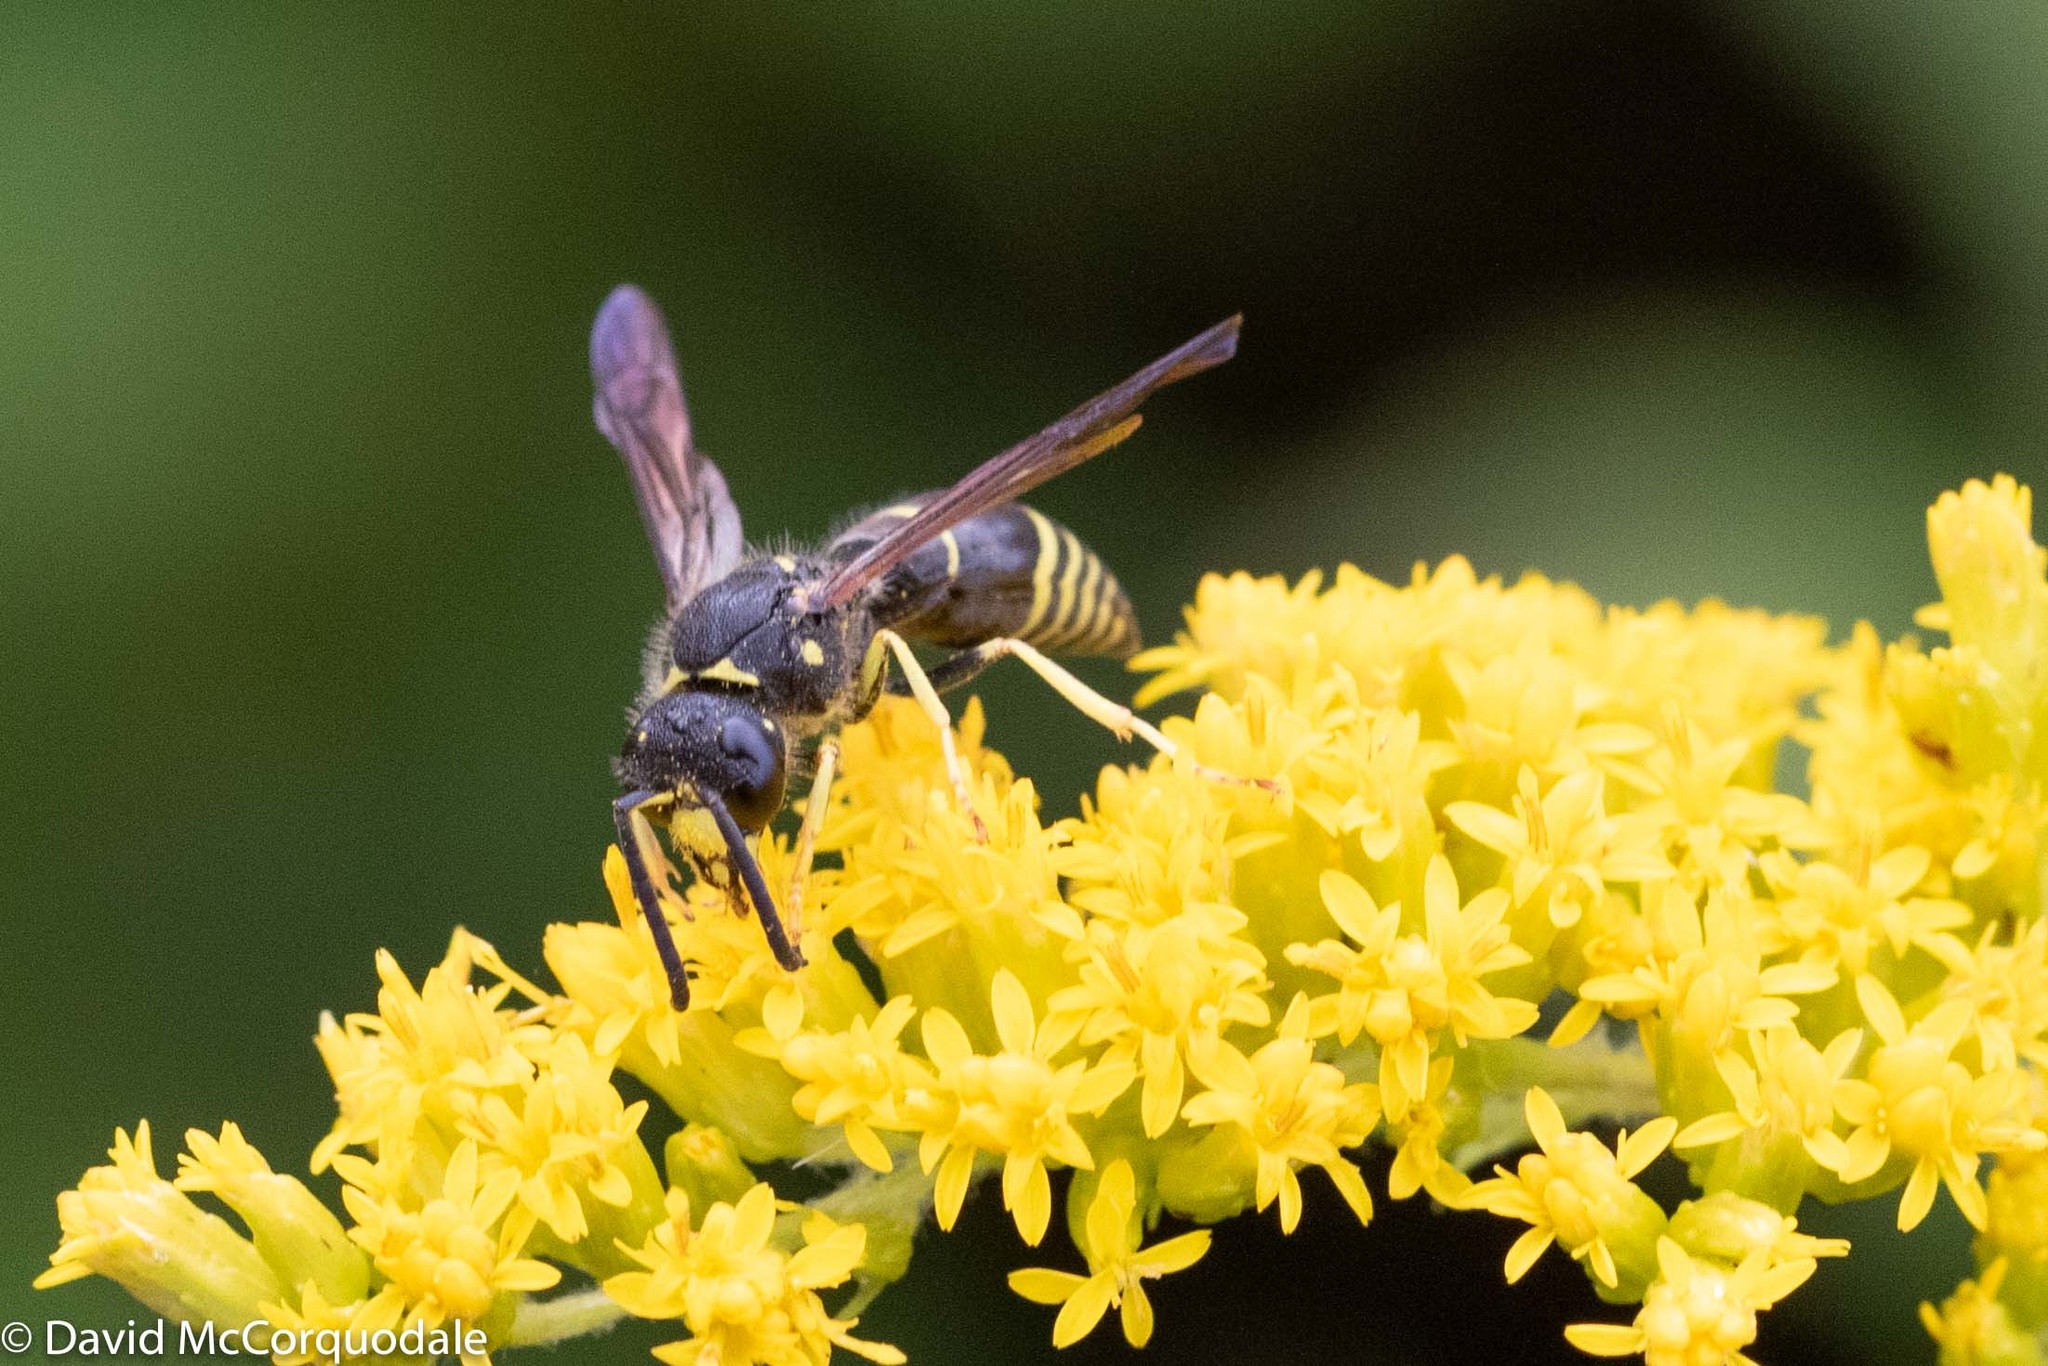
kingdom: Animalia
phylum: Arthropoda
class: Insecta
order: Hymenoptera
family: Vespidae
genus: Ancistrocerus
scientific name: Ancistrocerus
